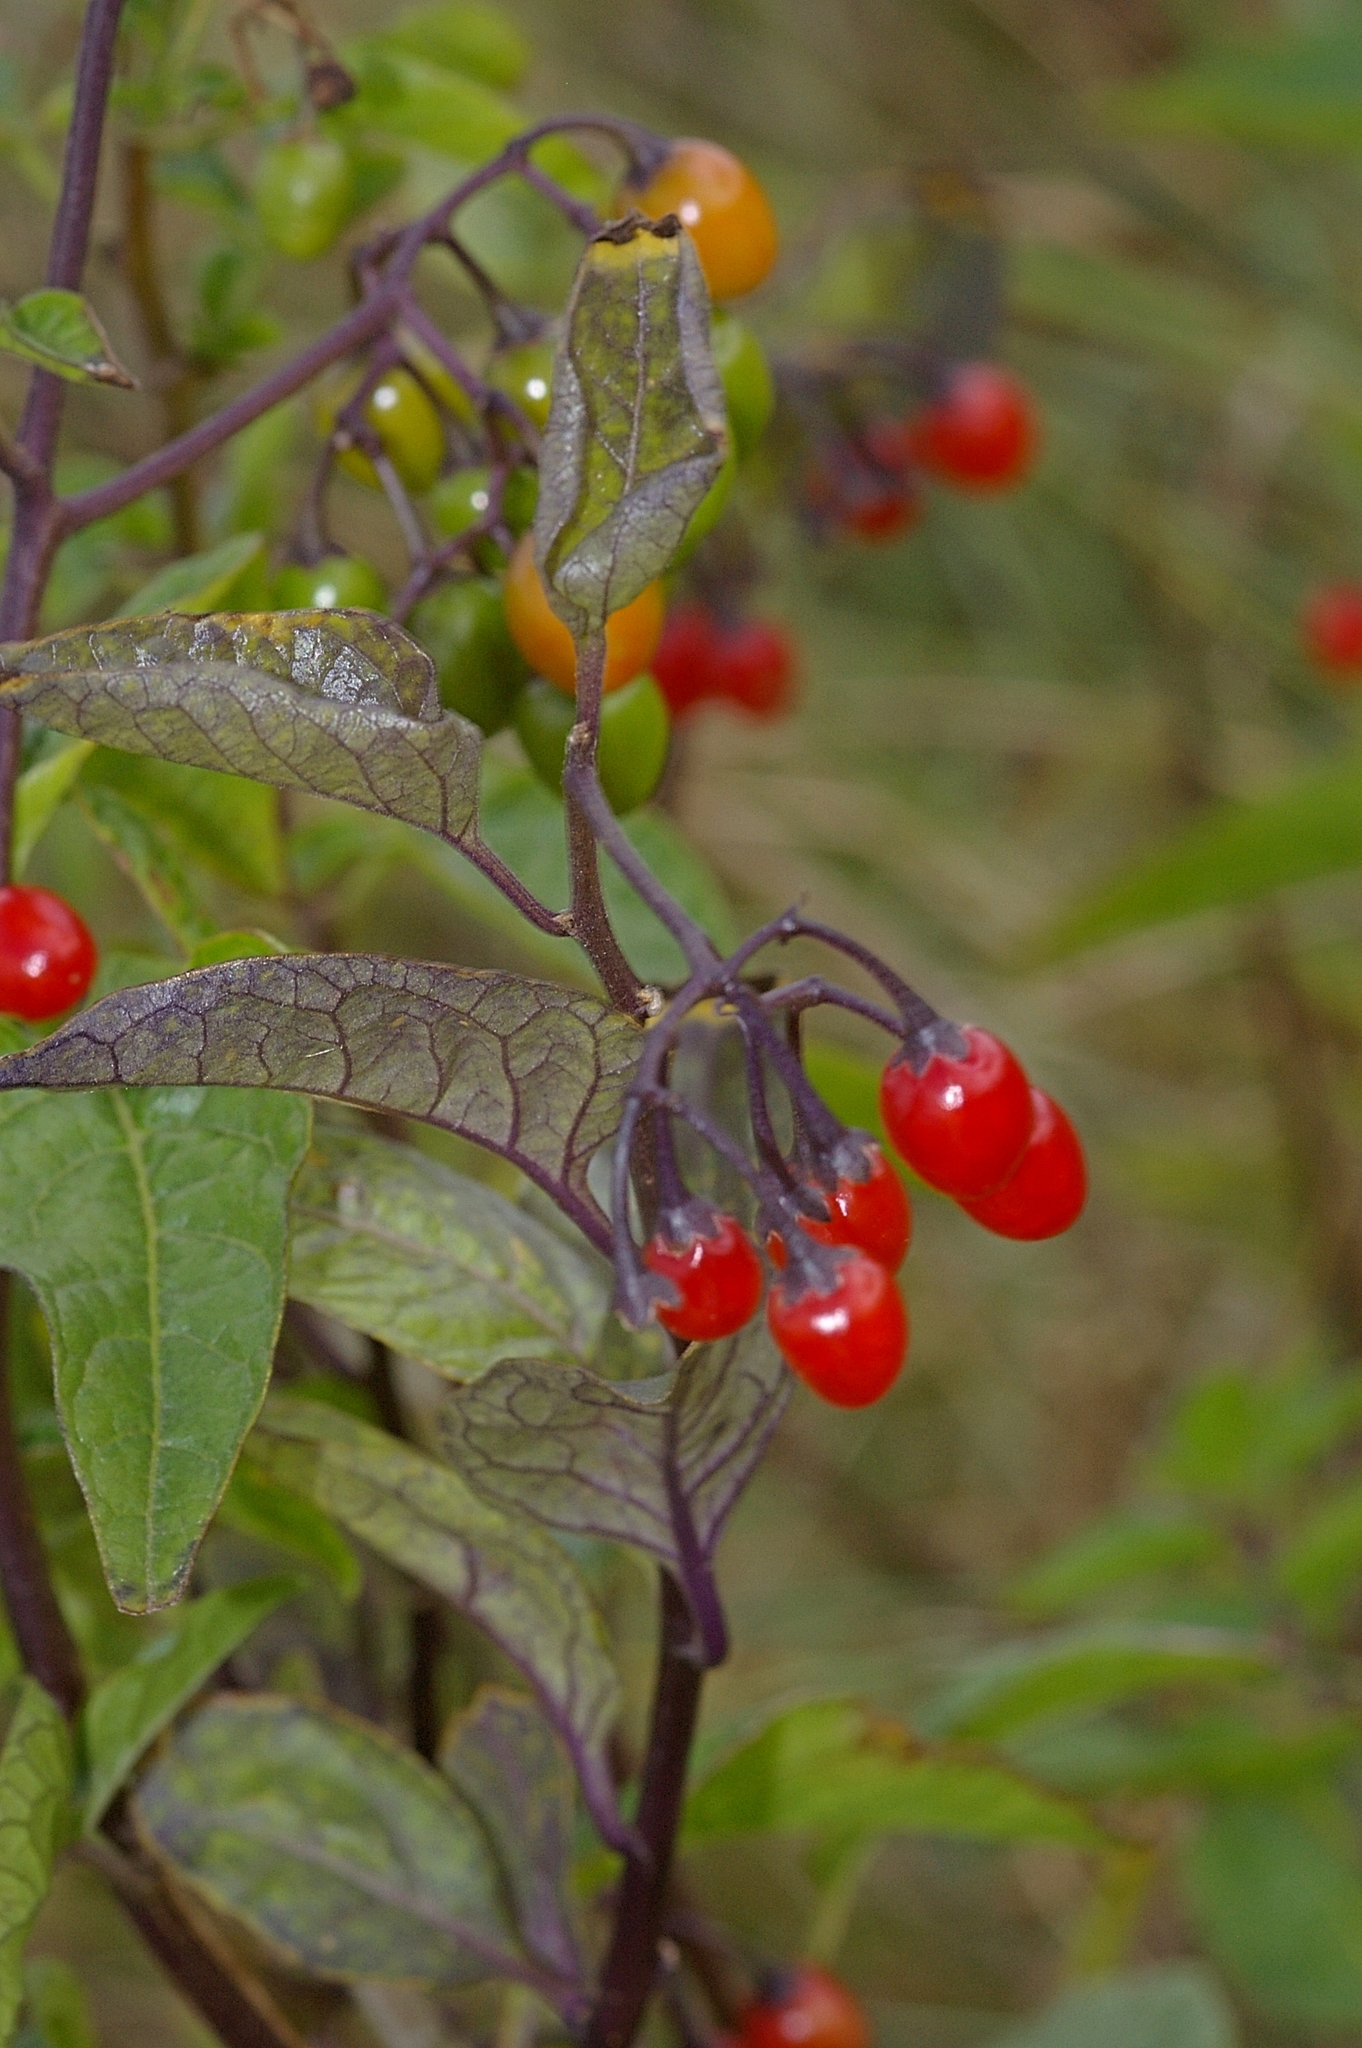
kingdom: Plantae
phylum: Tracheophyta
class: Magnoliopsida
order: Solanales
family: Solanaceae
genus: Solanum
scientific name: Solanum dulcamara
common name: Climbing nightshade
